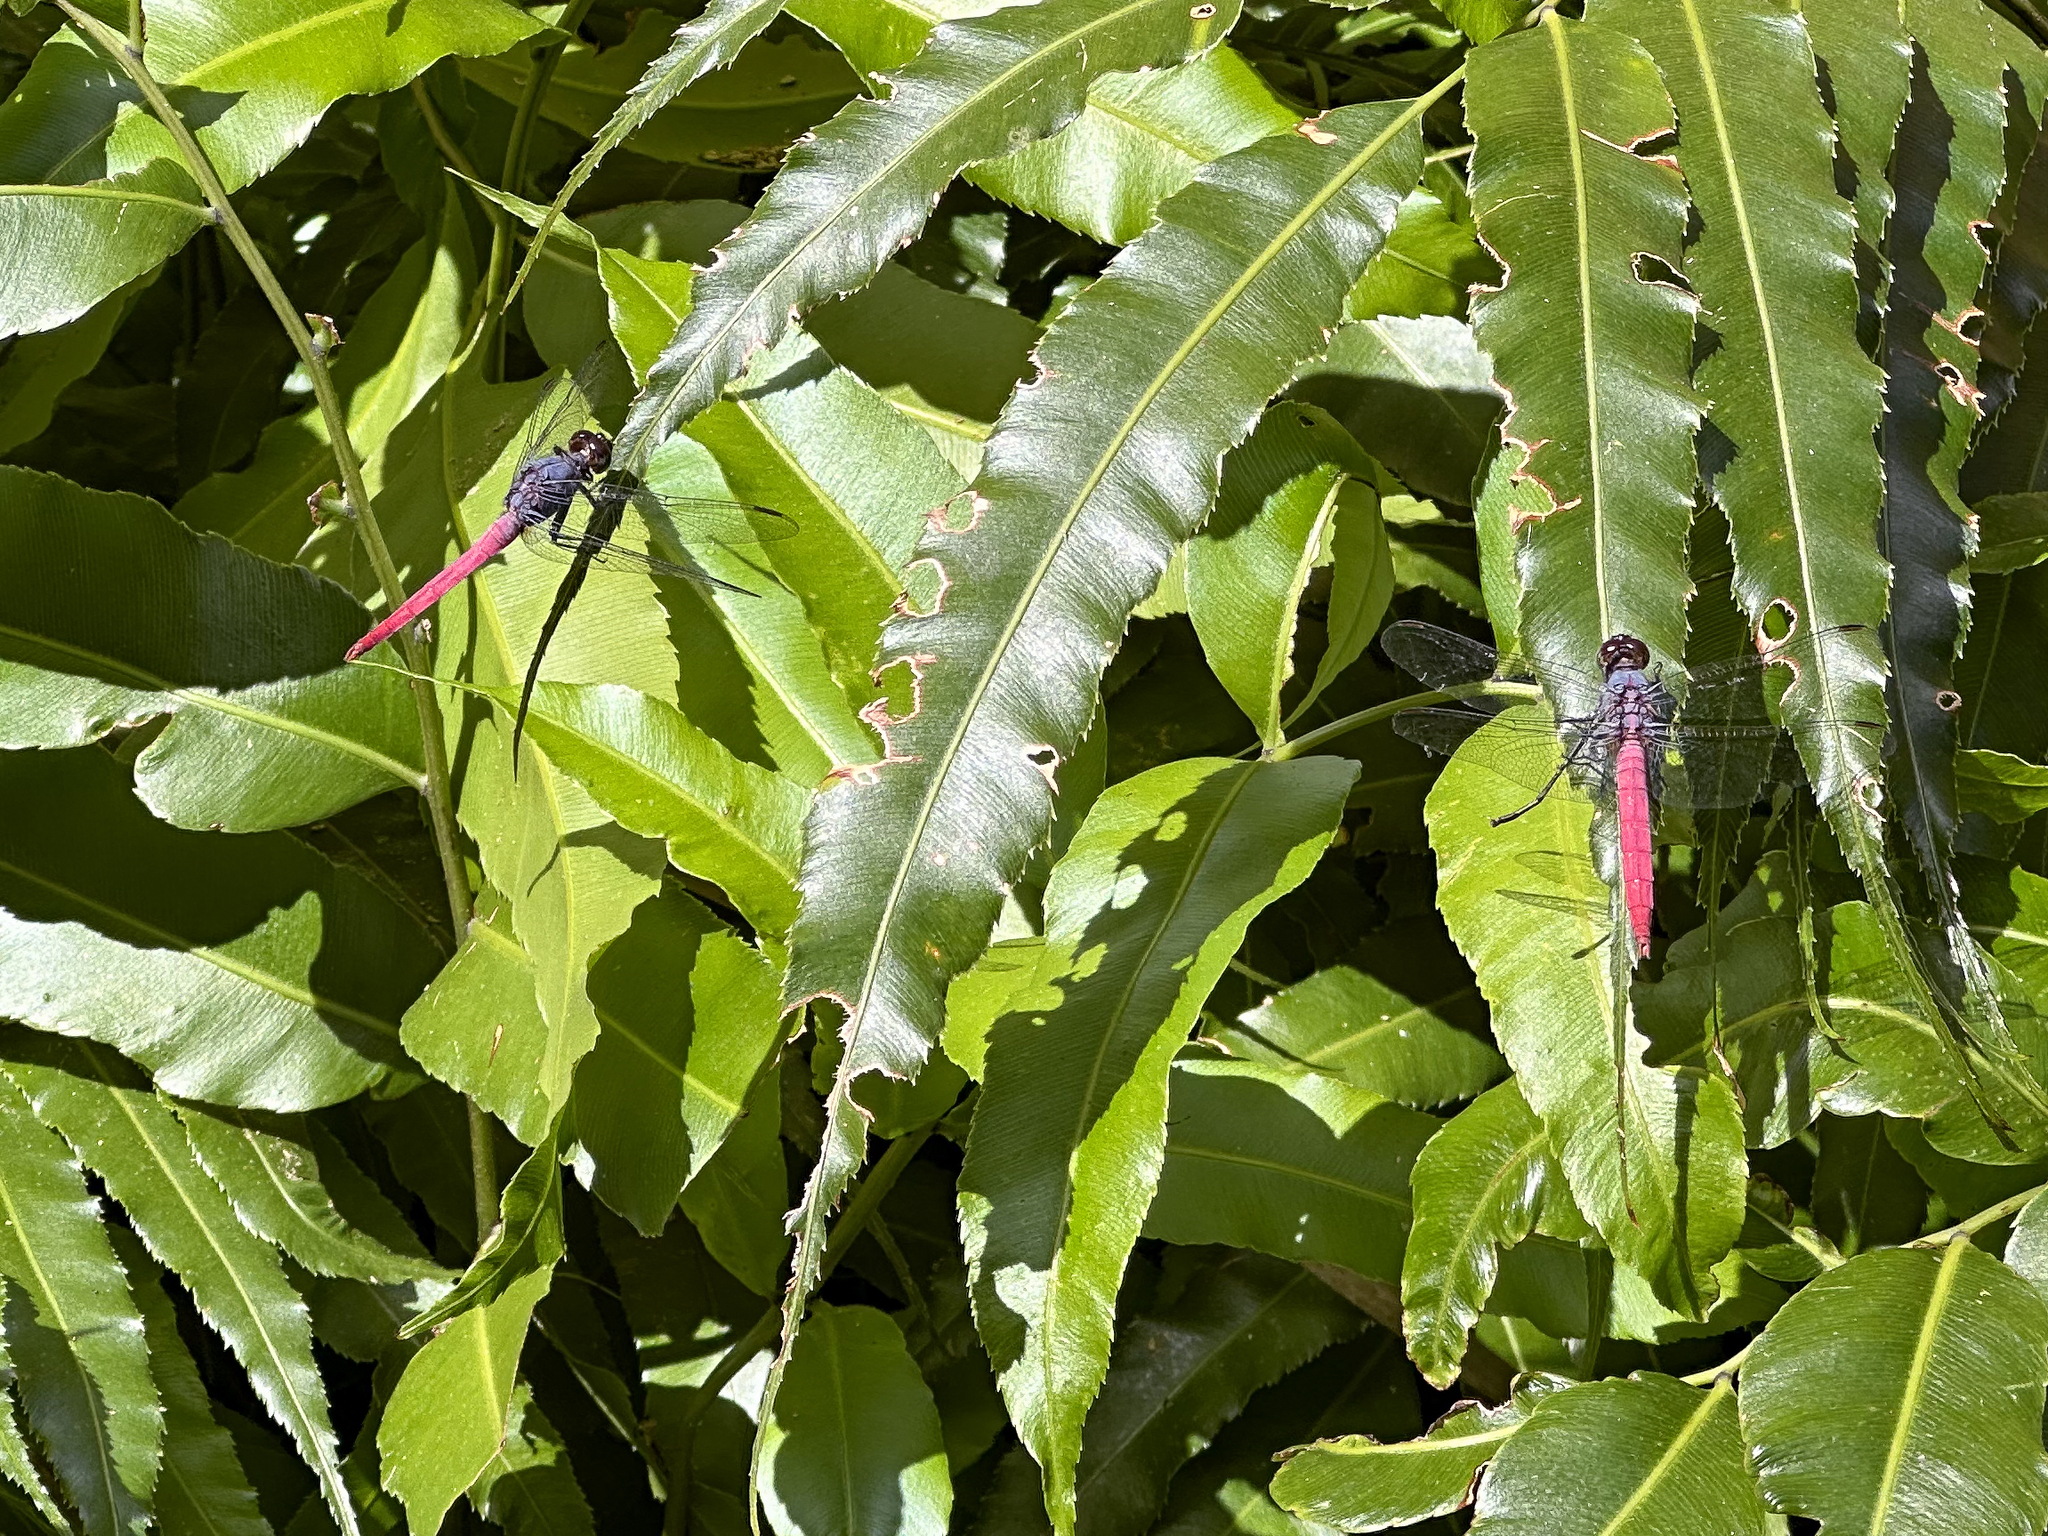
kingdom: Animalia
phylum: Arthropoda
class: Insecta
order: Odonata
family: Libellulidae
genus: Orthetrum
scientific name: Orthetrum migratum
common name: Rosy skimmer
